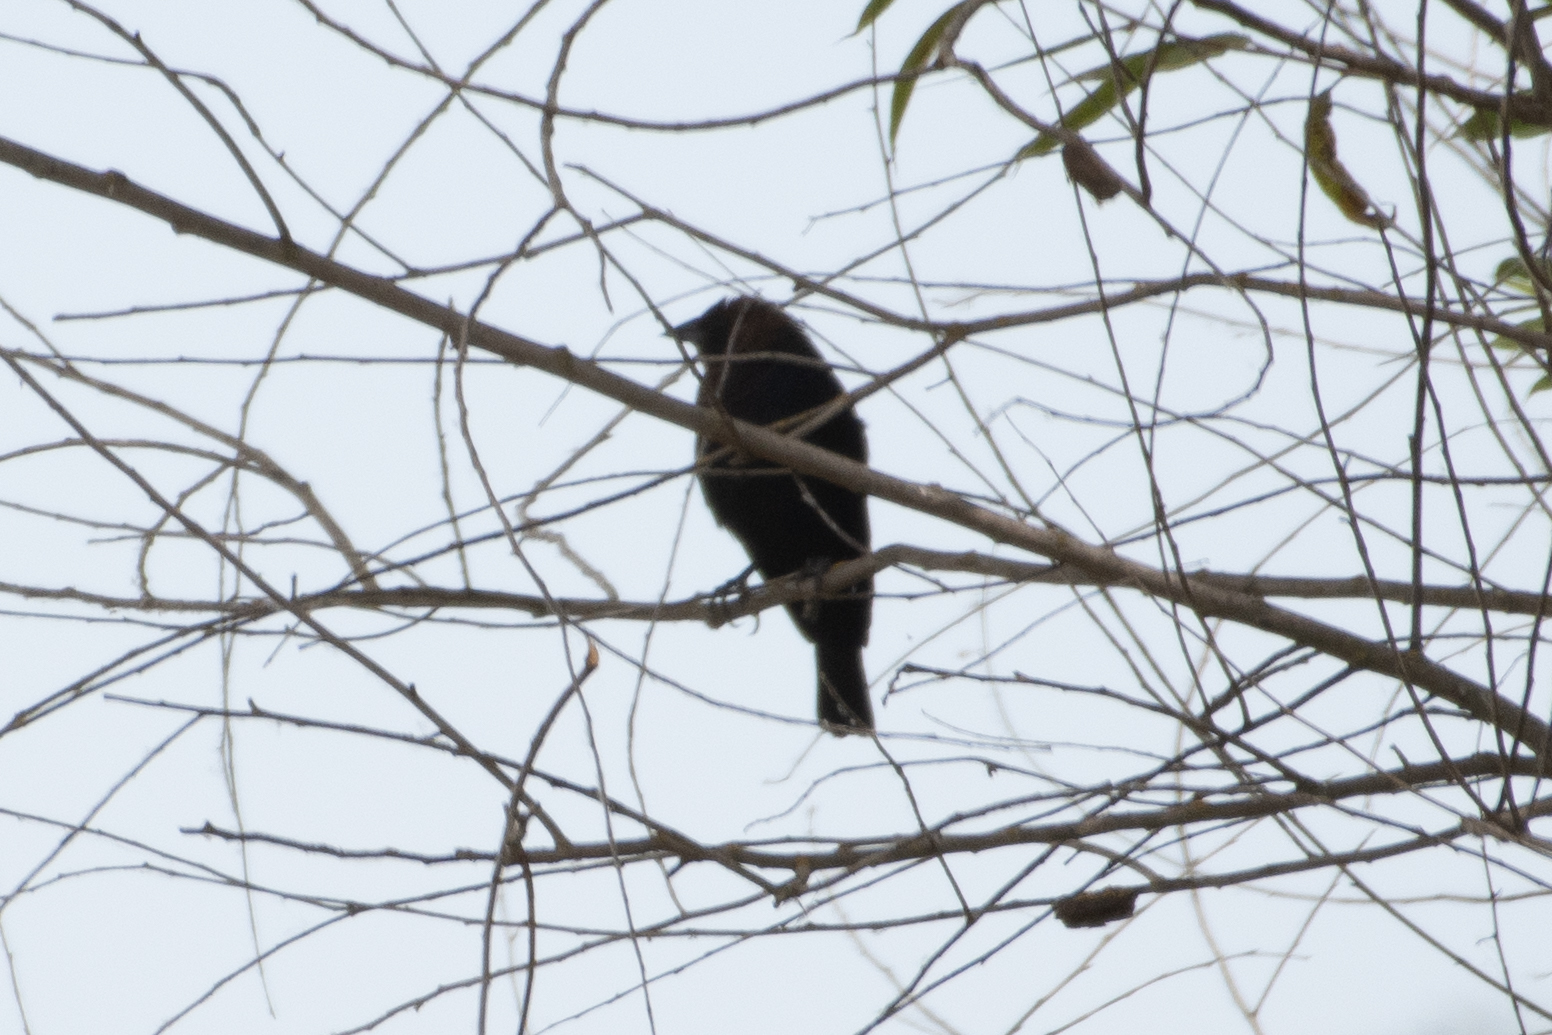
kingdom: Animalia
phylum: Chordata
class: Aves
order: Passeriformes
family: Icteridae
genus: Molothrus
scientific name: Molothrus ater
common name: Brown-headed cowbird
